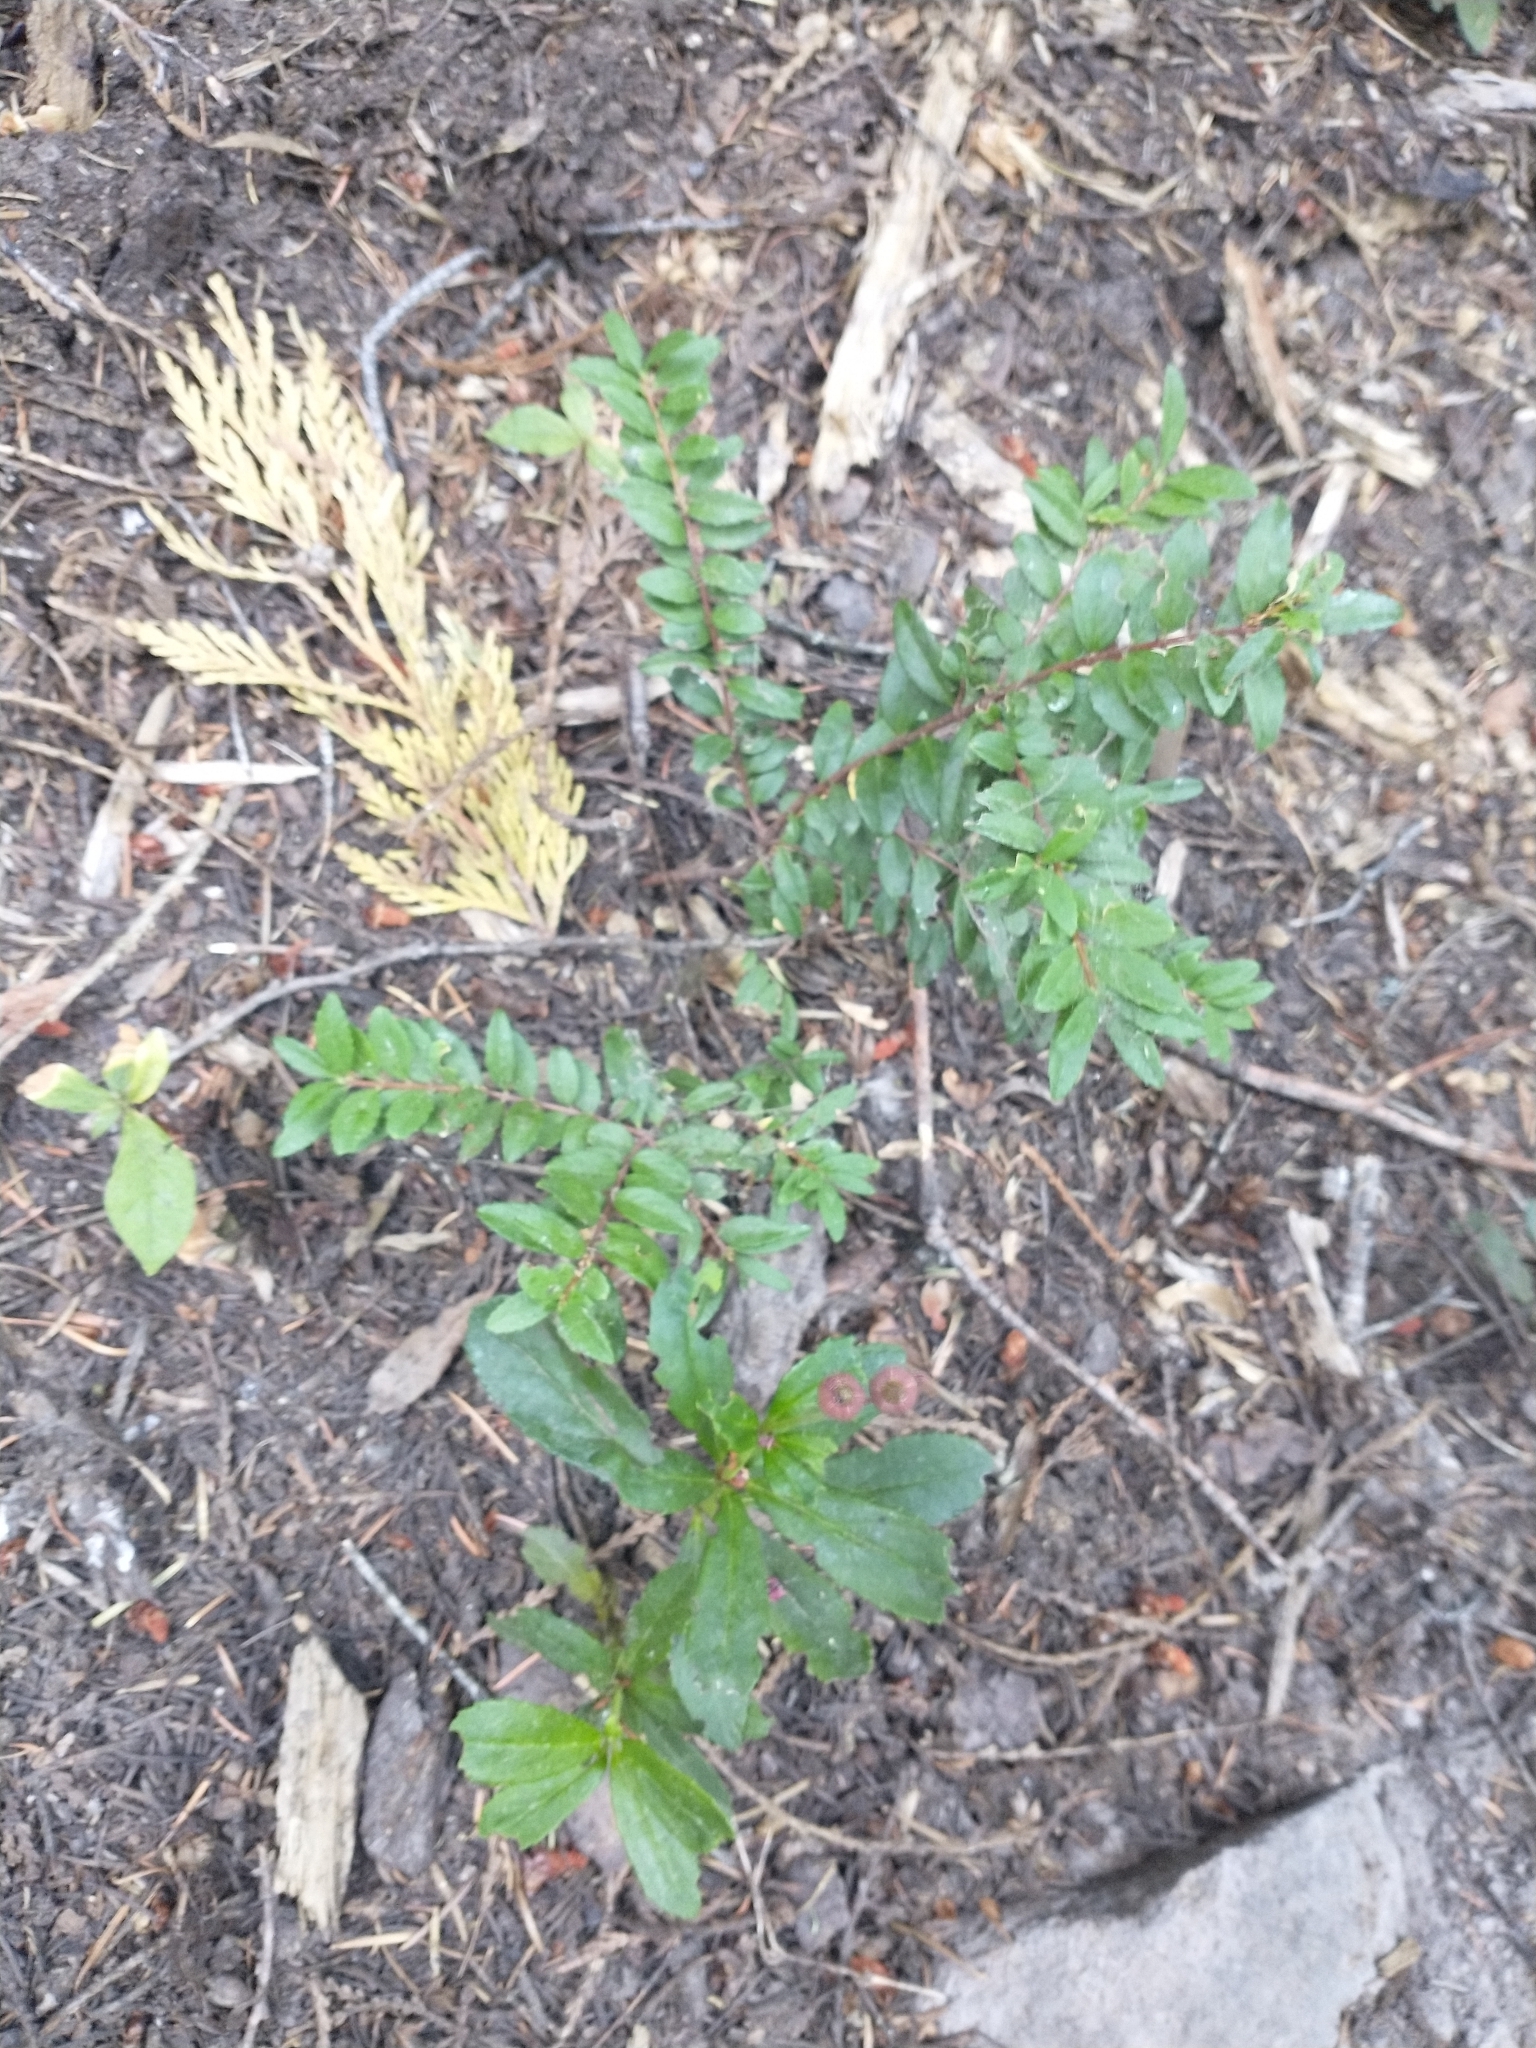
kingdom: Plantae
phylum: Tracheophyta
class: Magnoliopsida
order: Celastrales
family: Celastraceae
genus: Paxistima
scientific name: Paxistima myrsinites
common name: Mountain-lover
